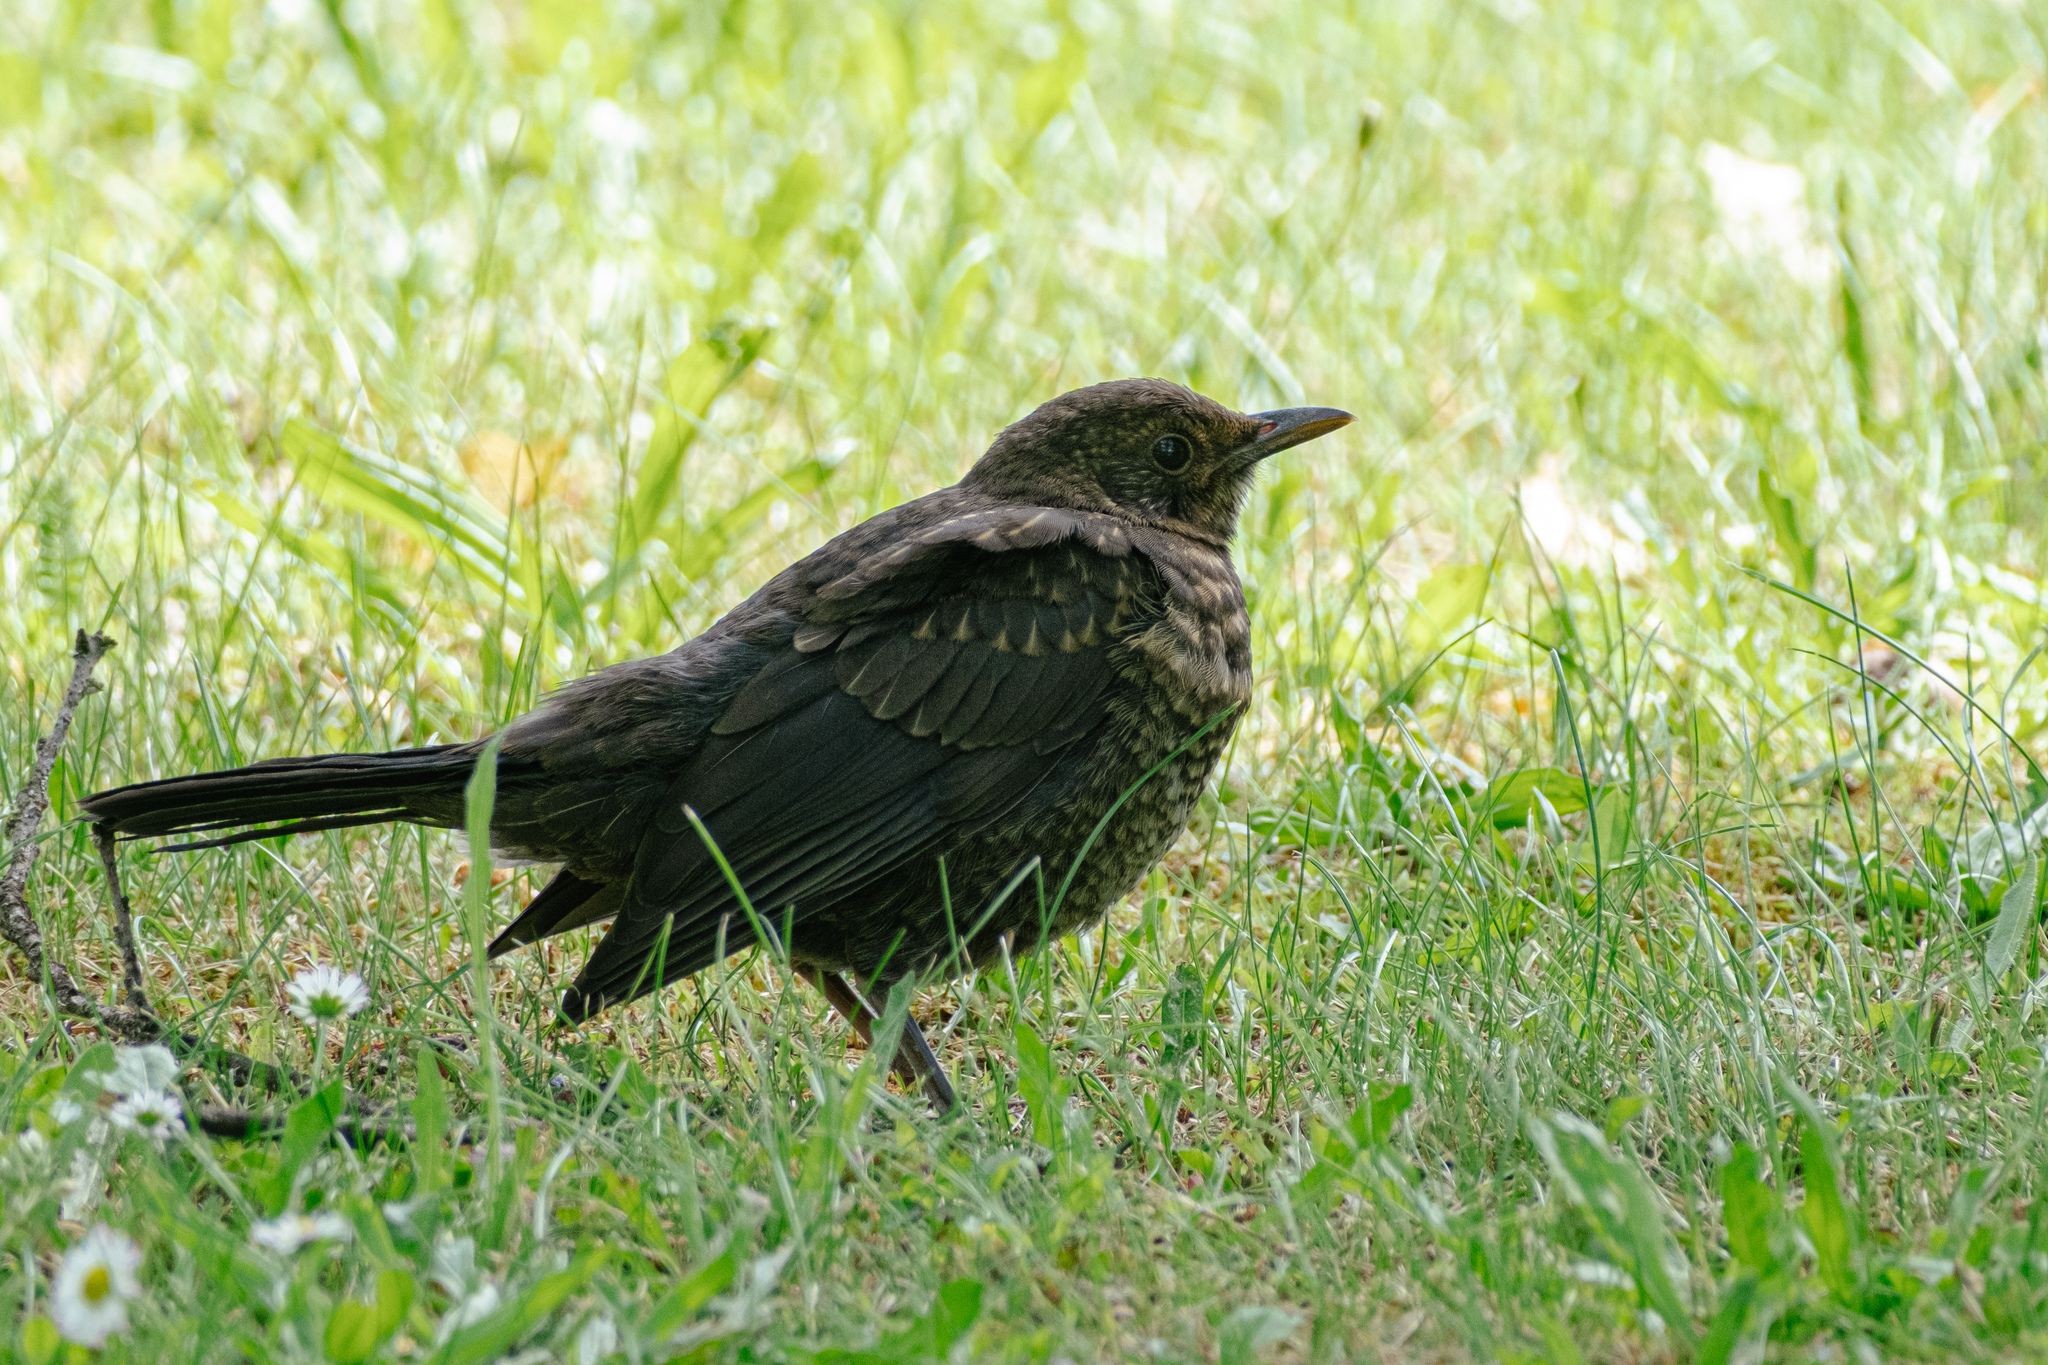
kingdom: Animalia
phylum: Chordata
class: Aves
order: Passeriformes
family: Turdidae
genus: Turdus
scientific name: Turdus merula
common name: Common blackbird
